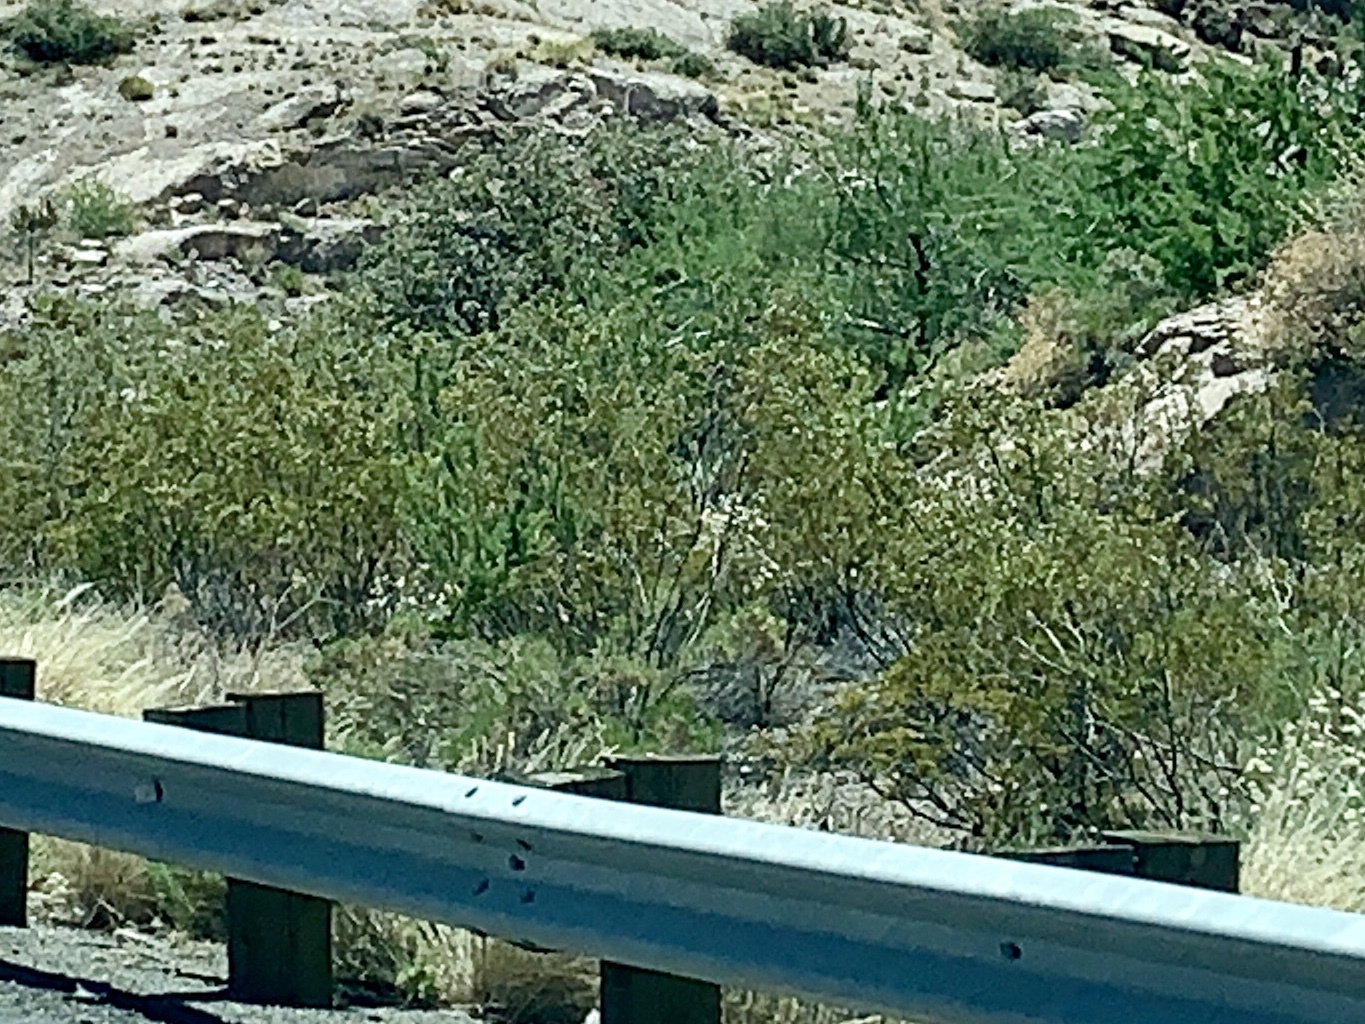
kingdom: Plantae
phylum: Tracheophyta
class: Magnoliopsida
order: Zygophyllales
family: Zygophyllaceae
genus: Larrea
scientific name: Larrea tridentata
